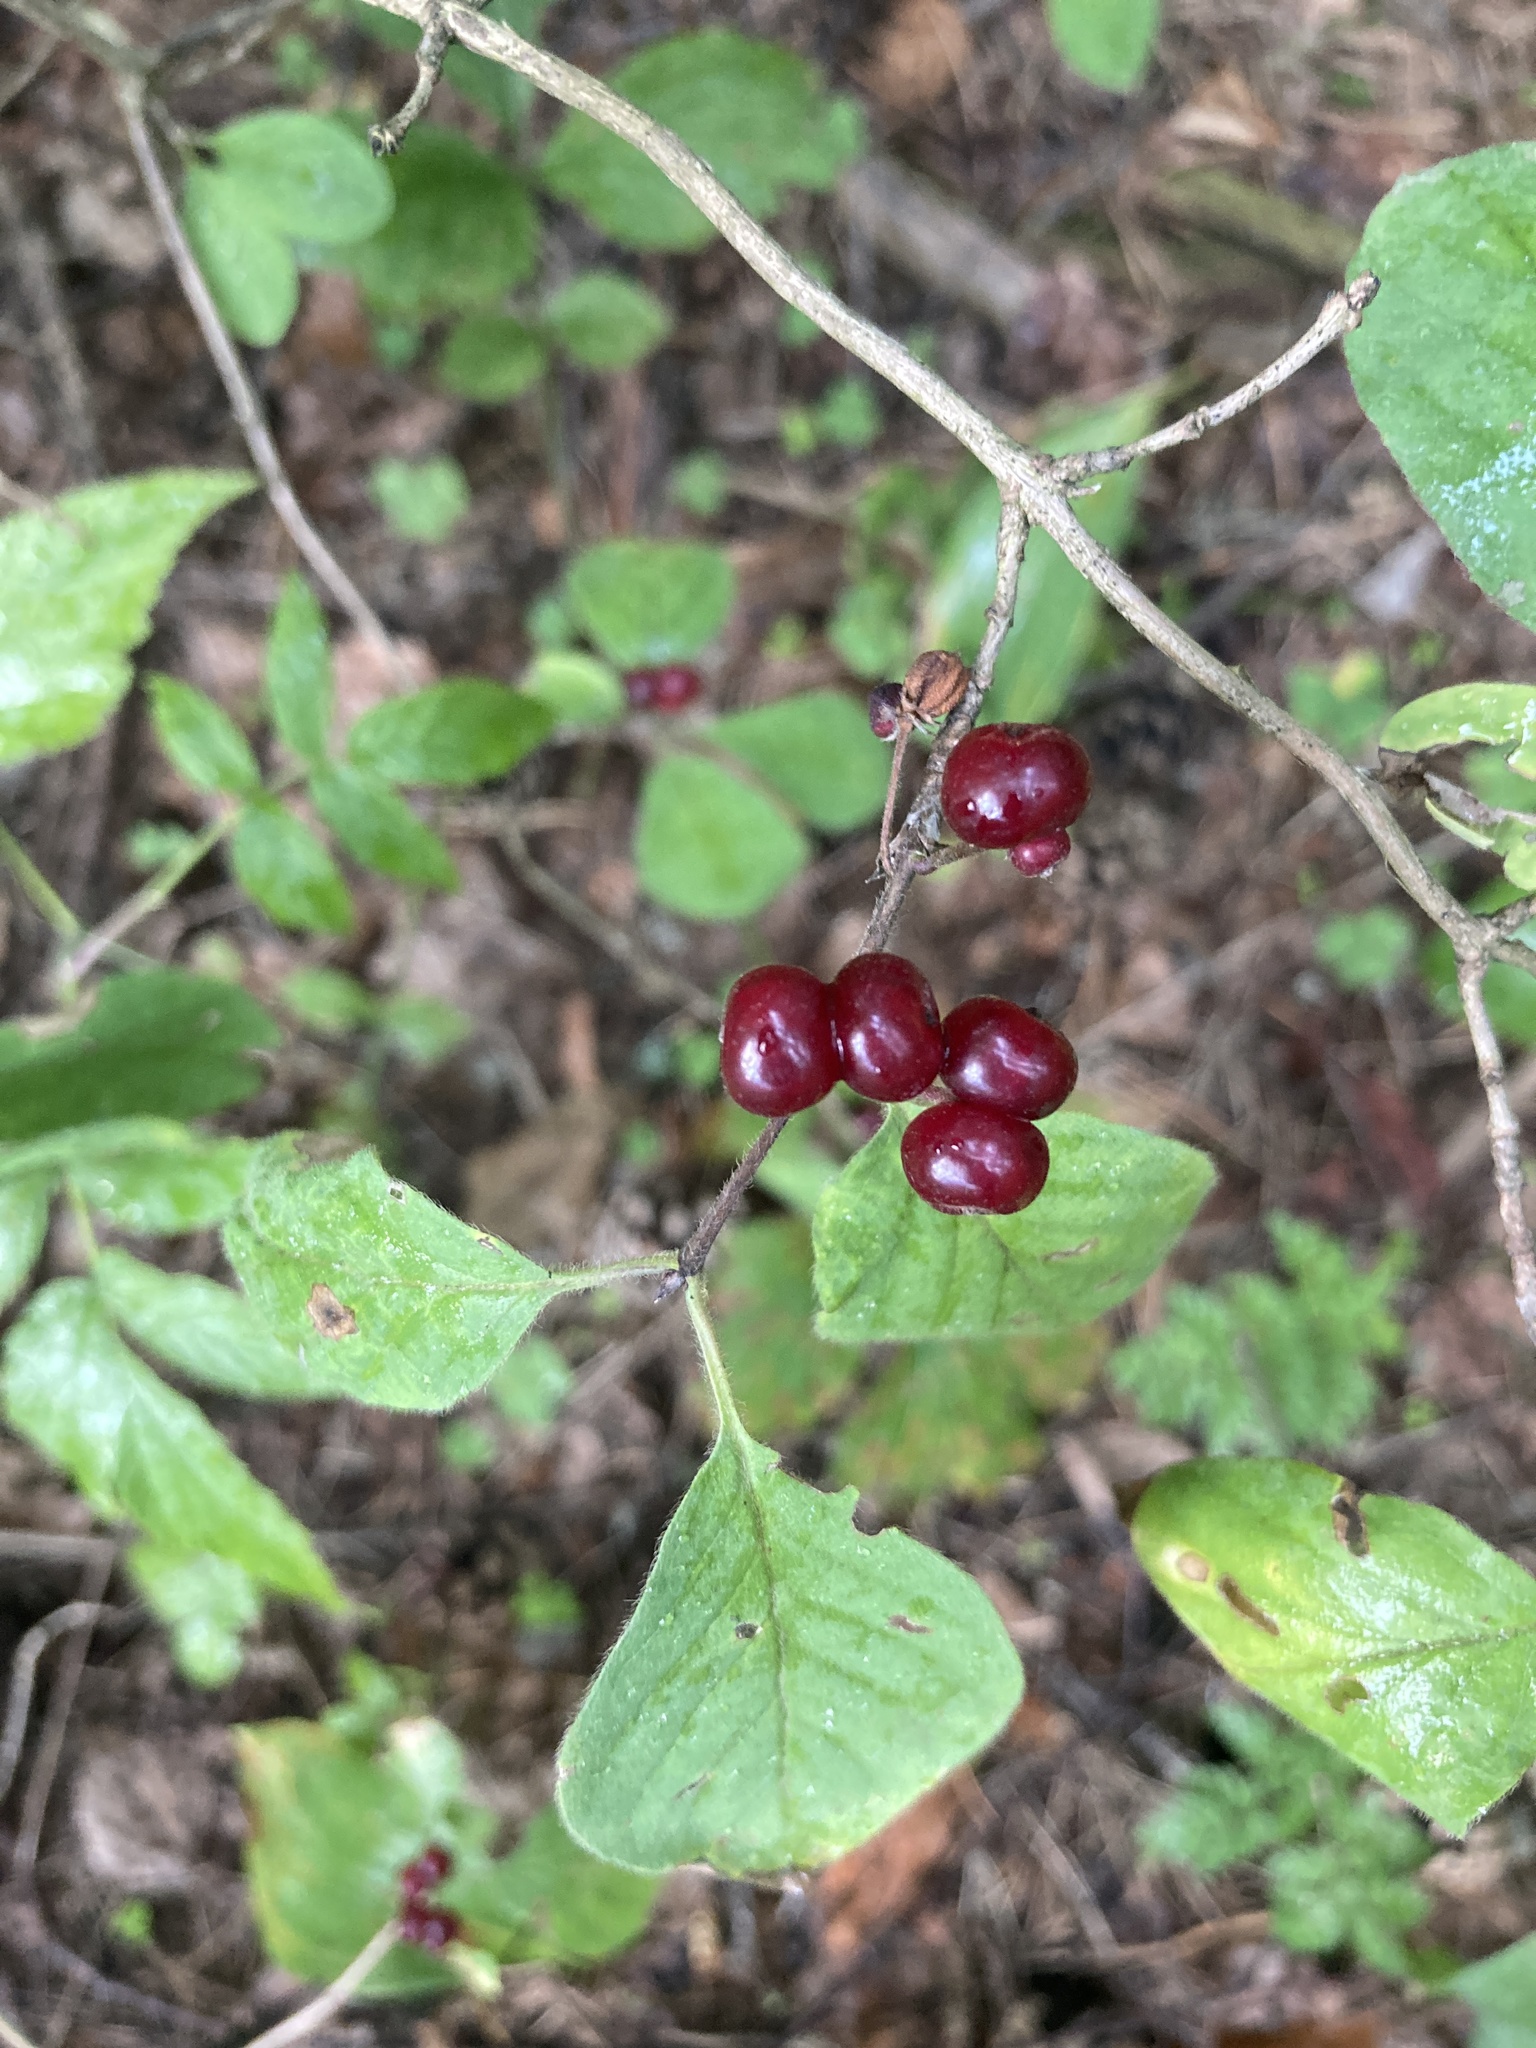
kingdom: Plantae
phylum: Tracheophyta
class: Magnoliopsida
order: Dipsacales
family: Caprifoliaceae
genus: Lonicera
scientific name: Lonicera xylosteum
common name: Fly honeysuckle
